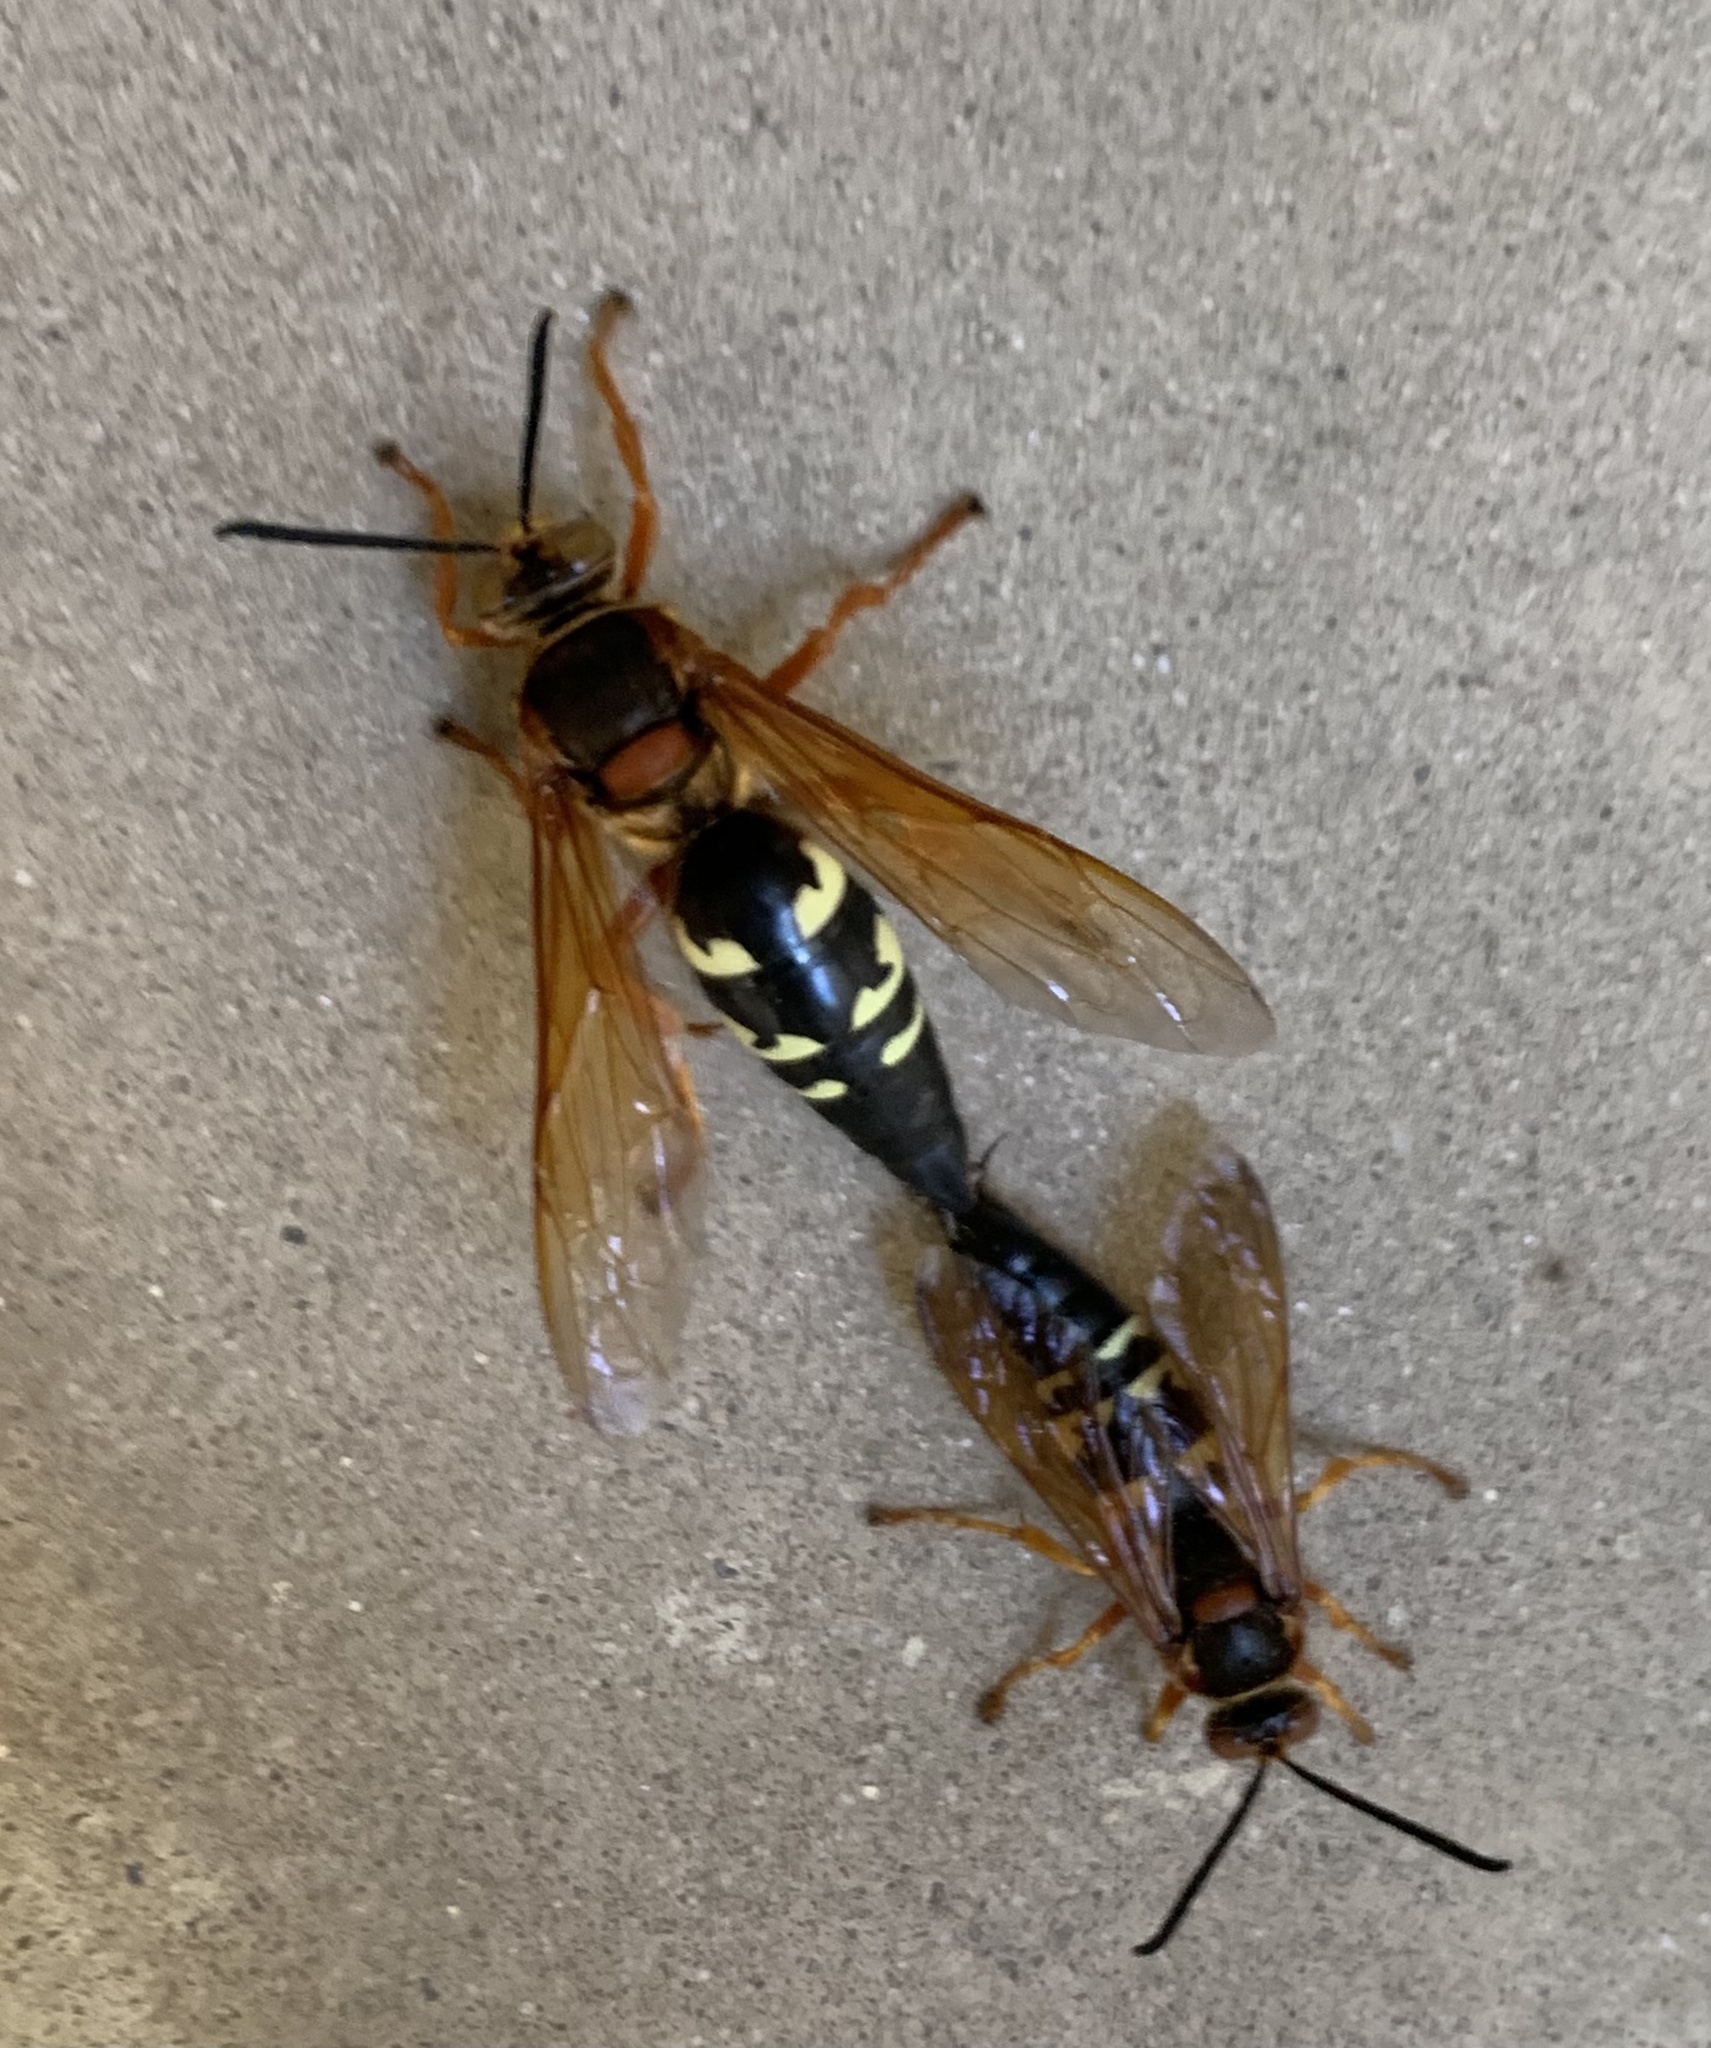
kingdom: Animalia
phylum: Arthropoda
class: Insecta
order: Hymenoptera
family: Crabronidae
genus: Sphecius
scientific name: Sphecius speciosus
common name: Cicada killer
